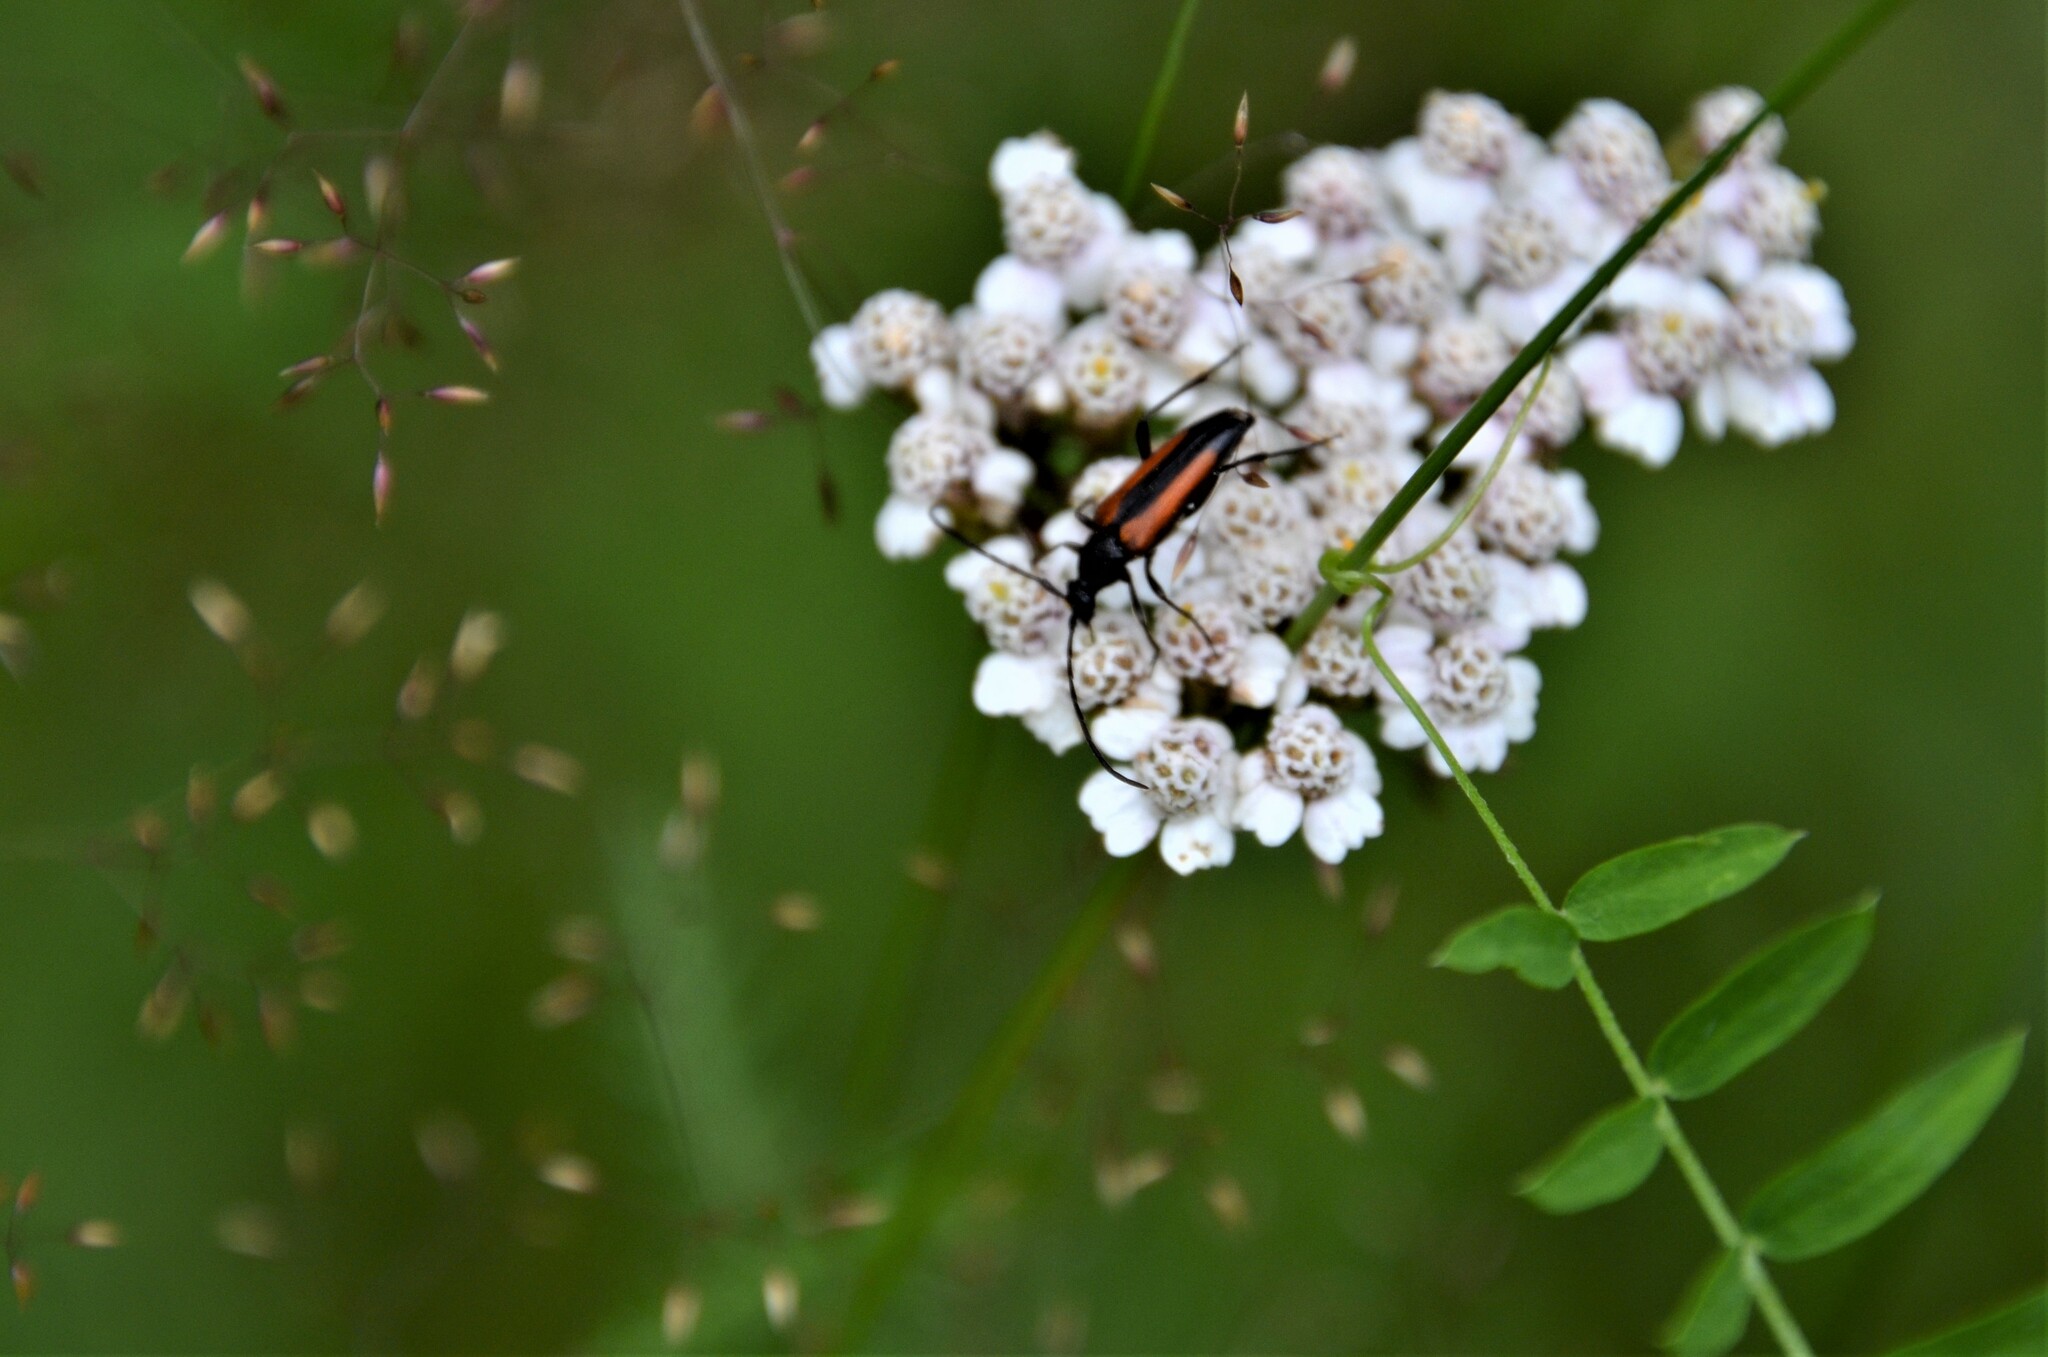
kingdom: Animalia
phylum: Arthropoda
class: Insecta
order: Coleoptera
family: Cerambycidae
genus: Stenurella
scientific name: Stenurella melanura
